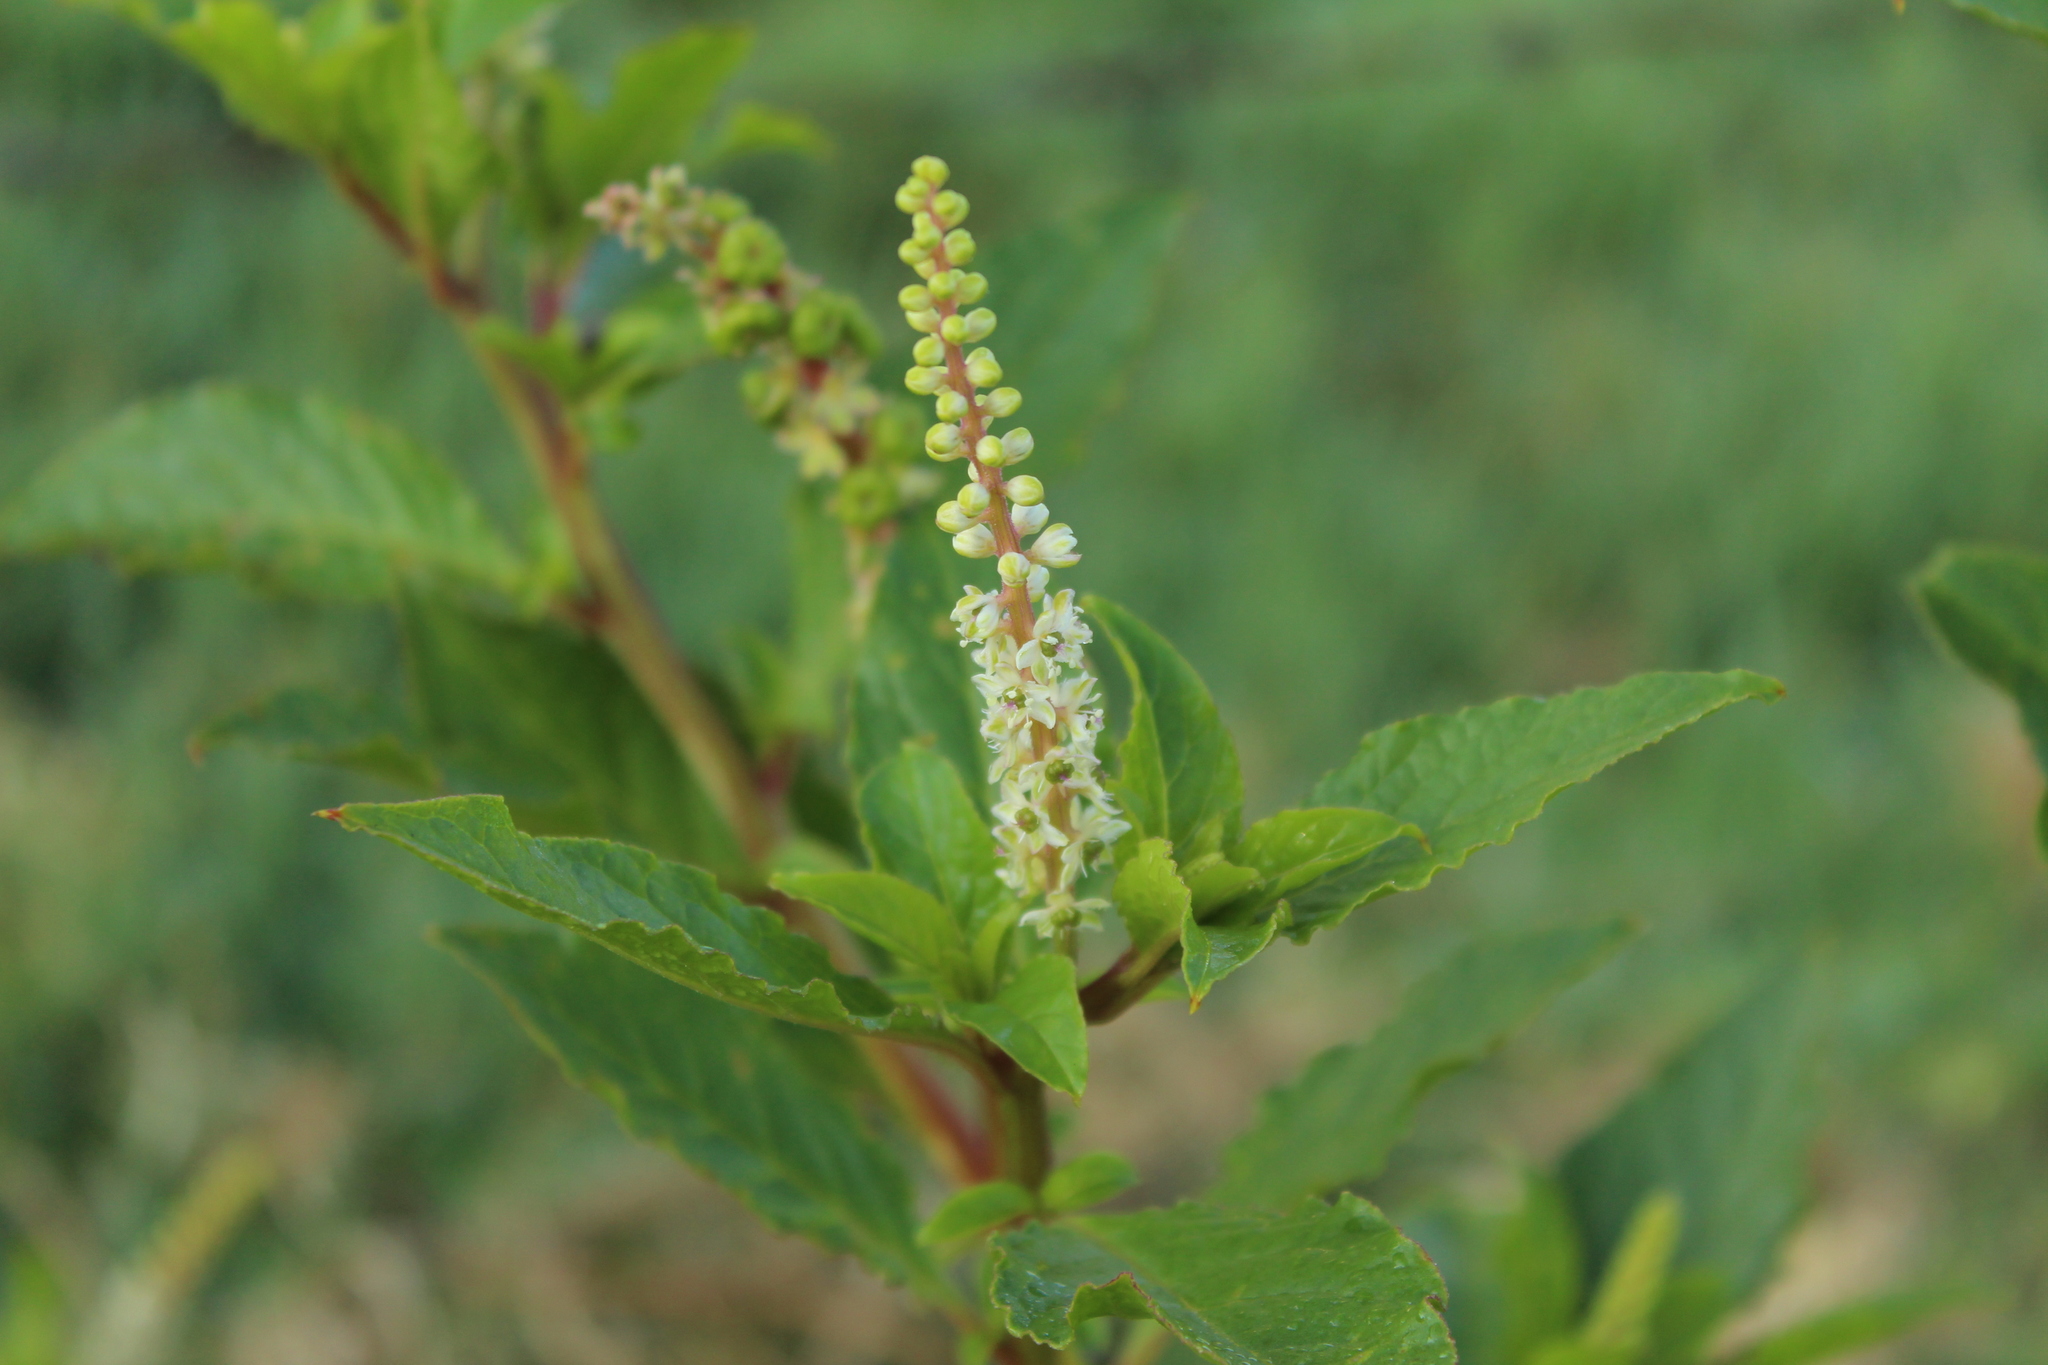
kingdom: Plantae
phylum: Tracheophyta
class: Magnoliopsida
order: Caryophyllales
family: Phytolaccaceae
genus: Phytolacca
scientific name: Phytolacca icosandra
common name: Button pokeweed
